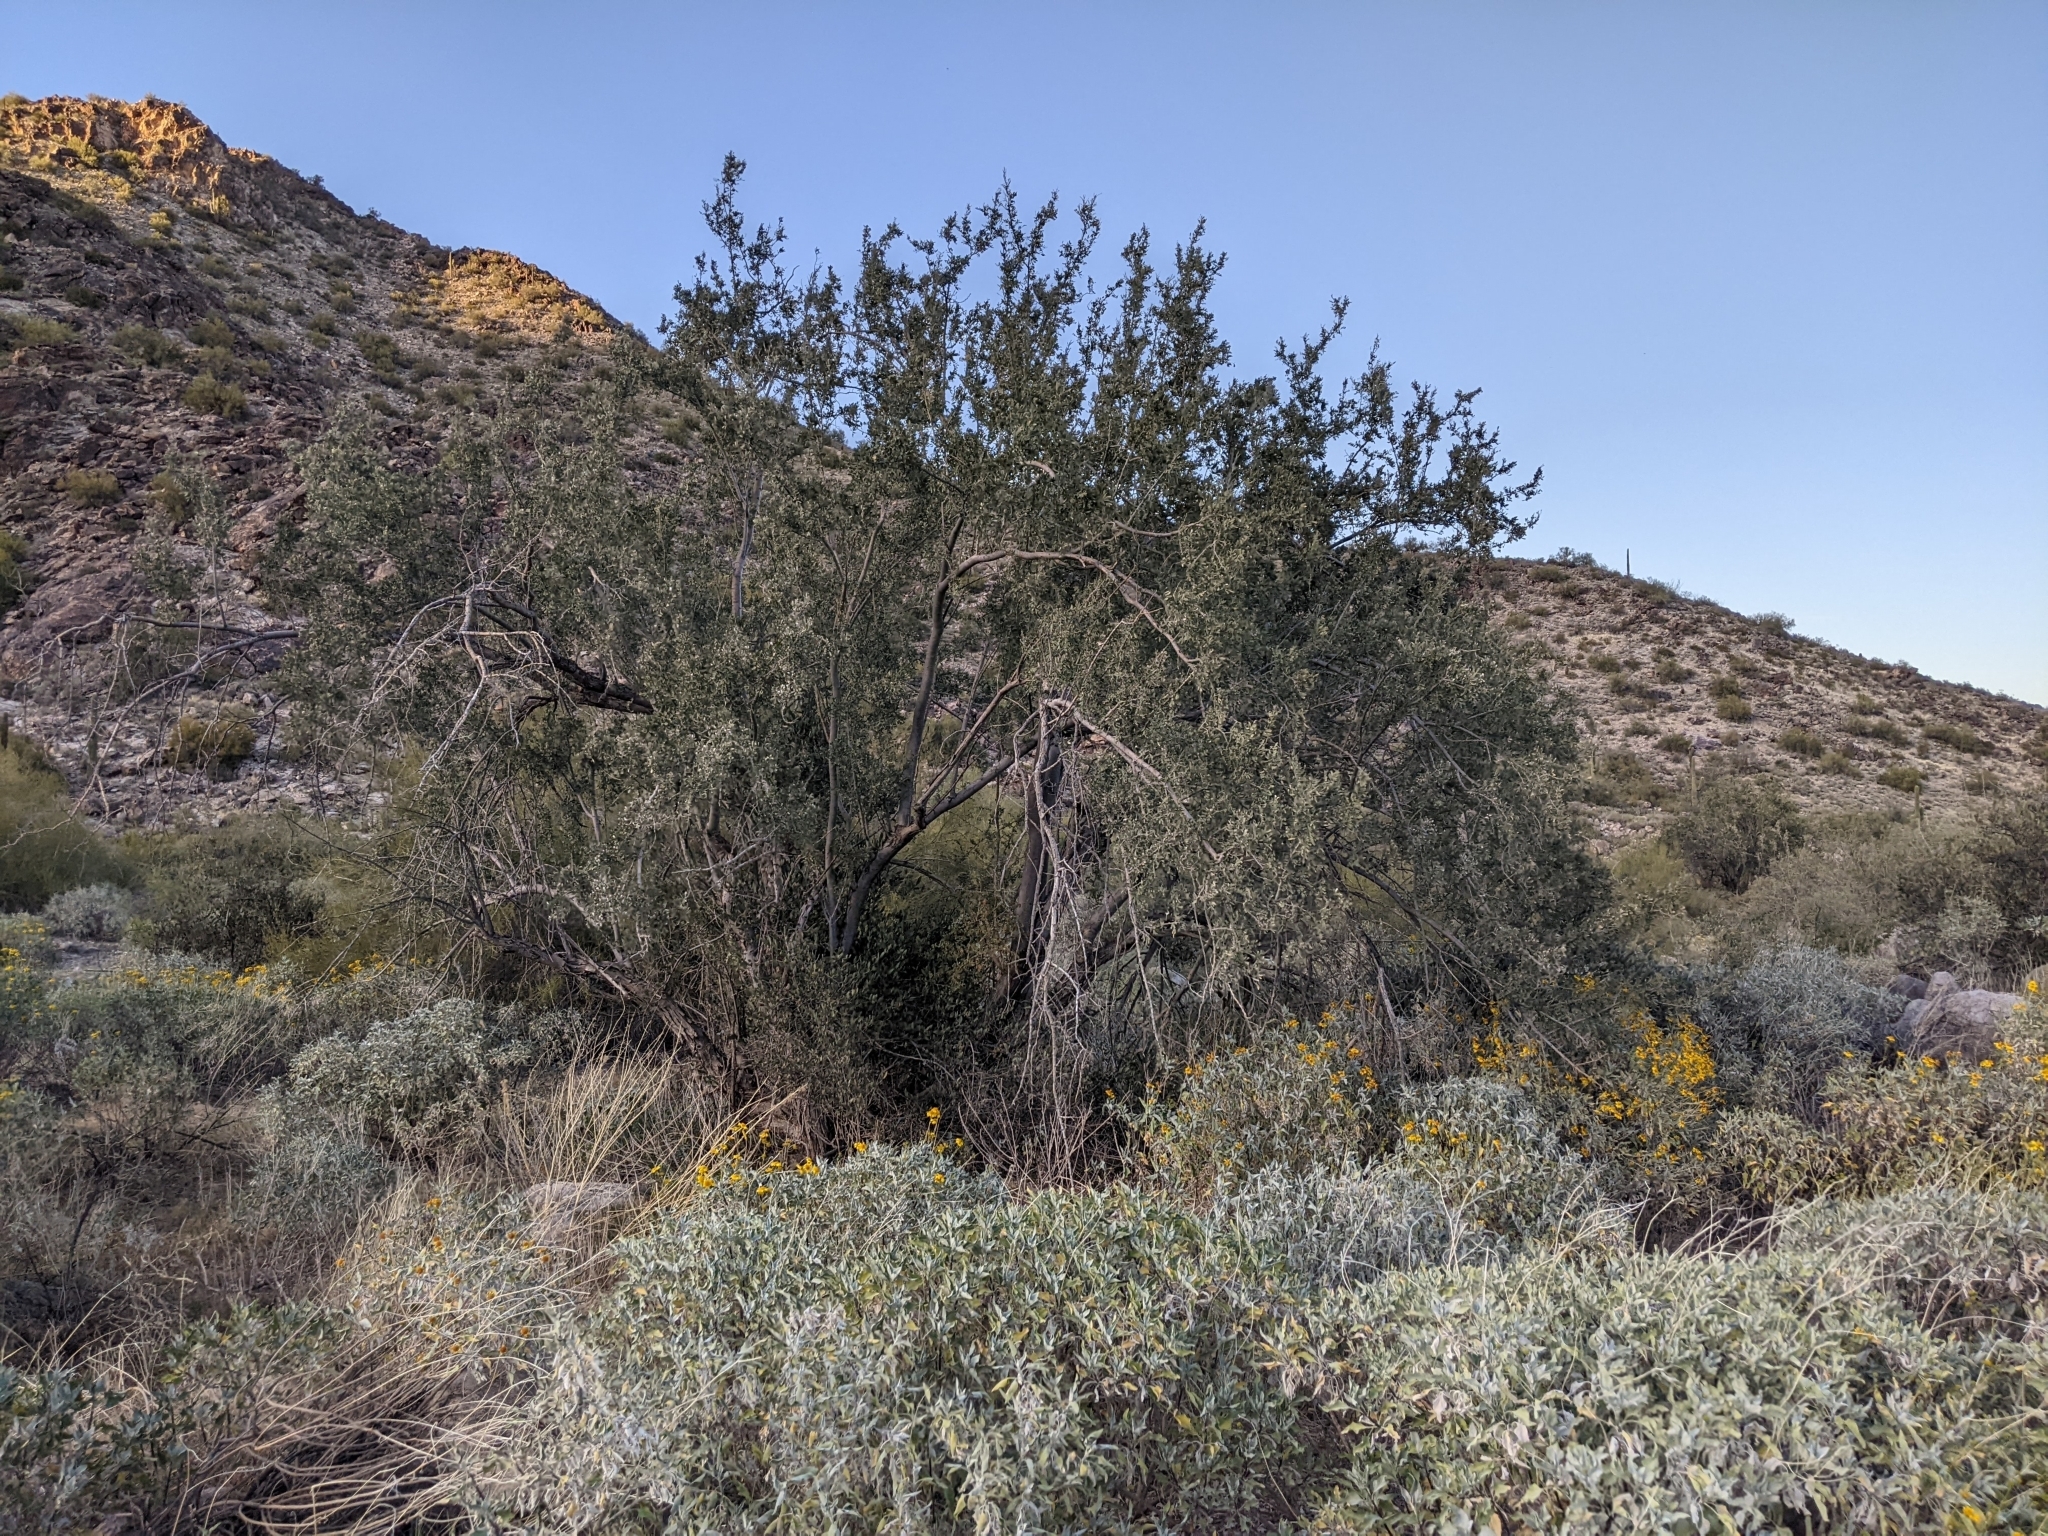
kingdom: Plantae
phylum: Tracheophyta
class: Magnoliopsida
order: Fabales
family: Fabaceae
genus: Olneya
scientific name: Olneya tesota
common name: Desert ironwood
